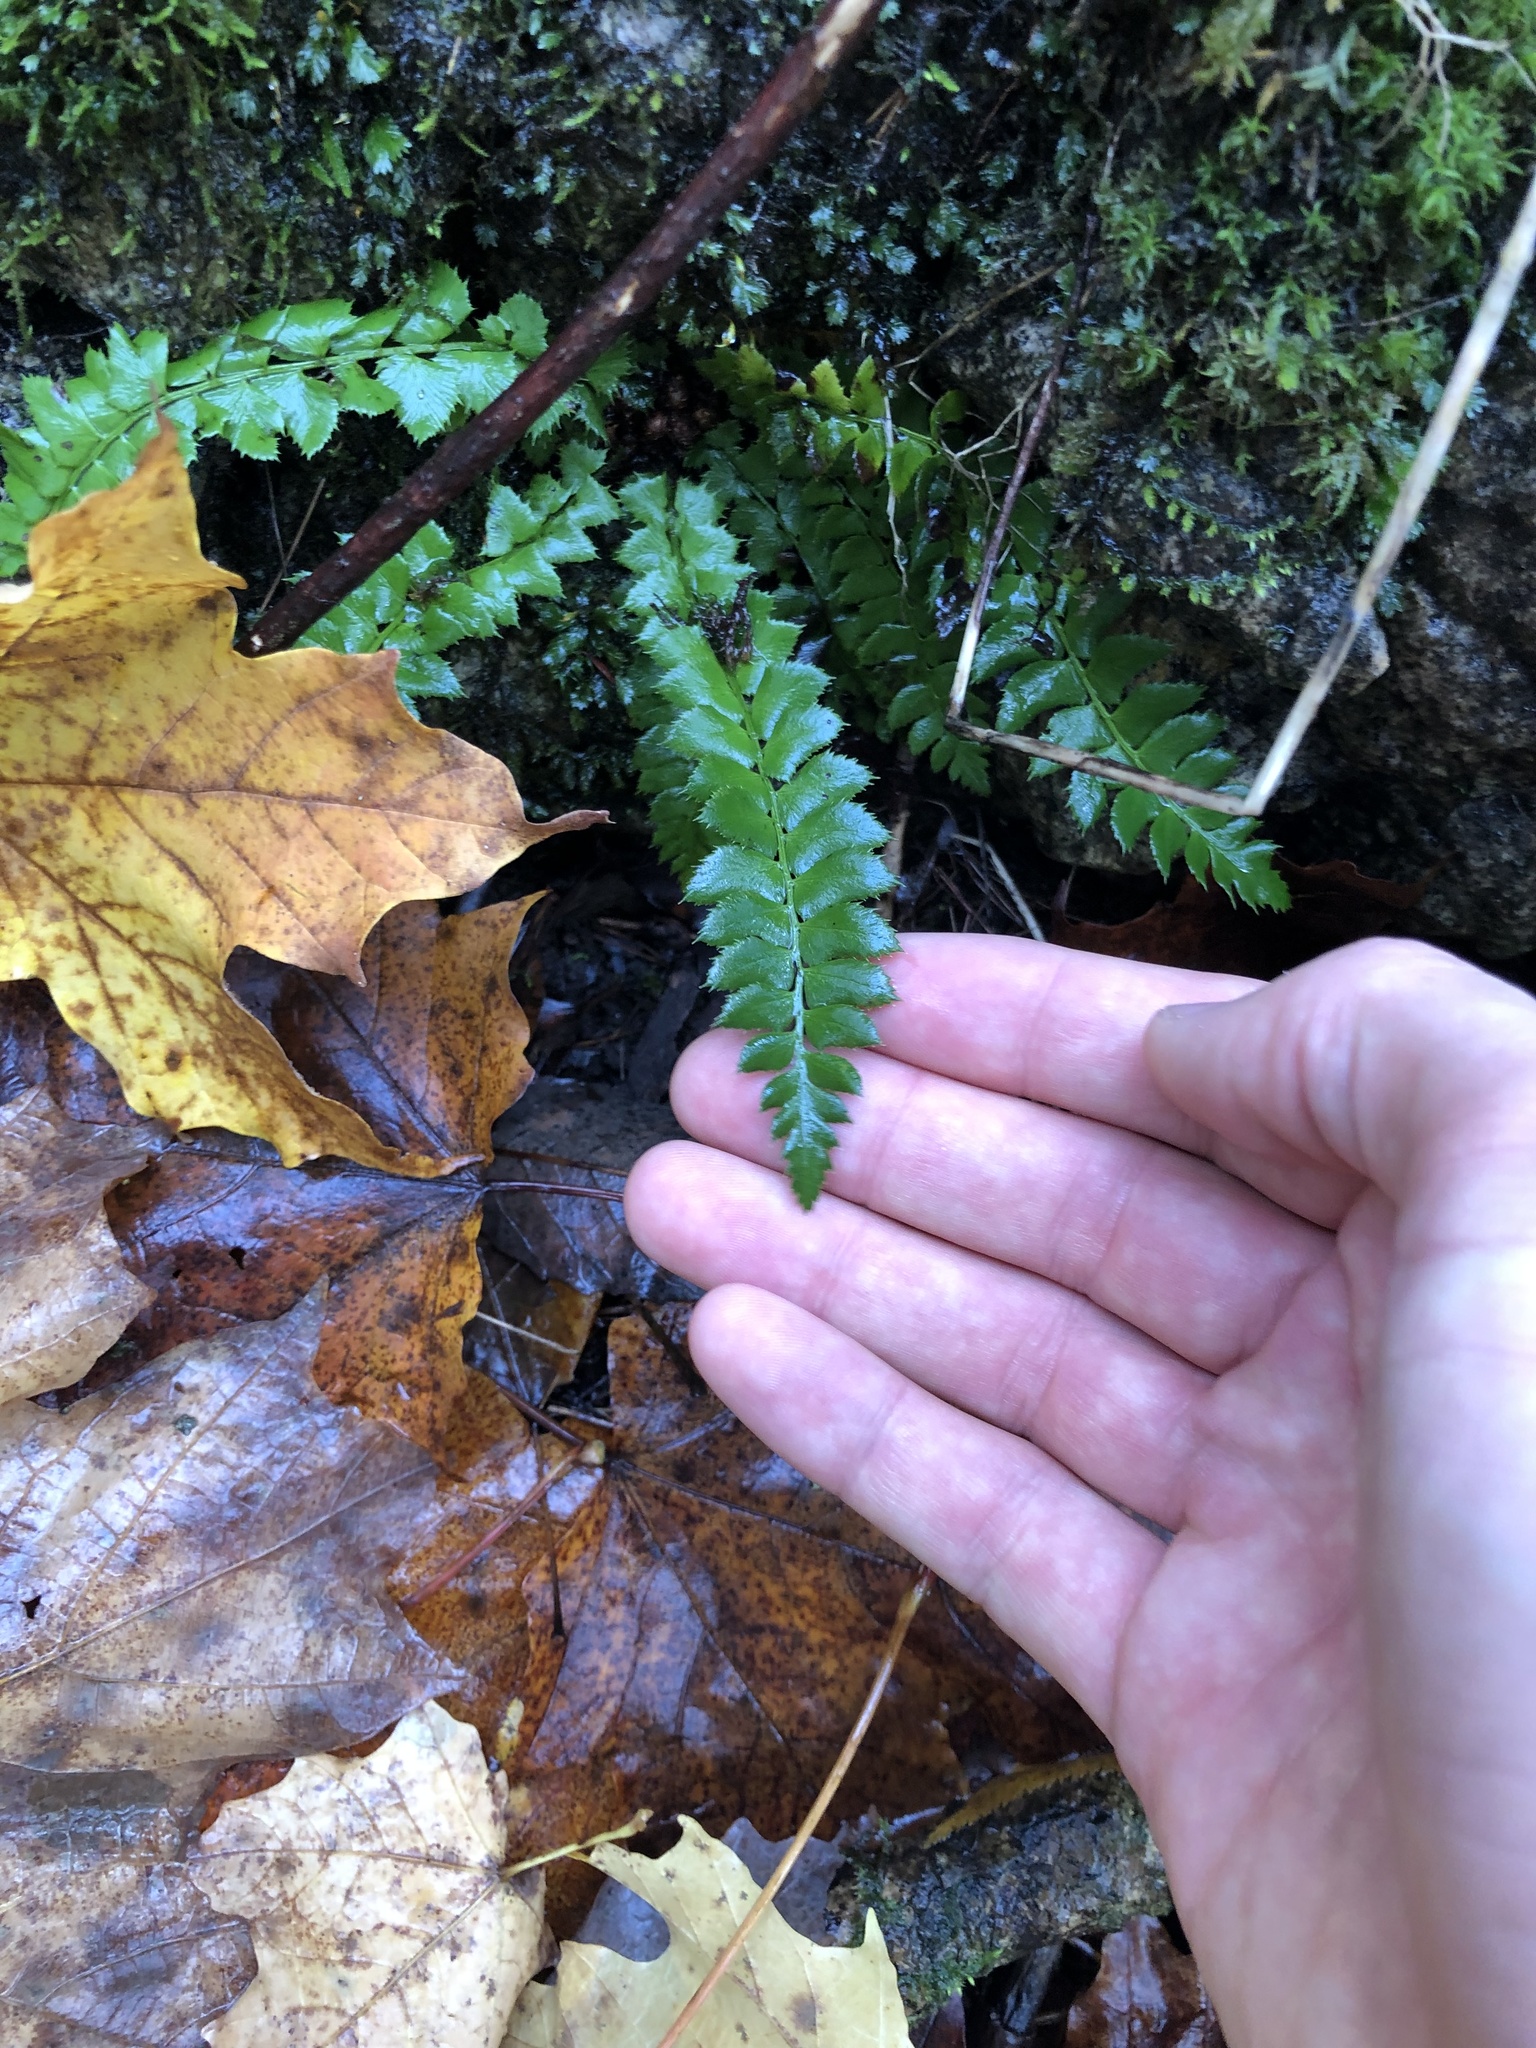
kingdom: Plantae
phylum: Tracheophyta
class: Polypodiopsida
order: Polypodiales
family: Dryopteridaceae
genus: Polystichum
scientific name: Polystichum lonchitis
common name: Holly fern
